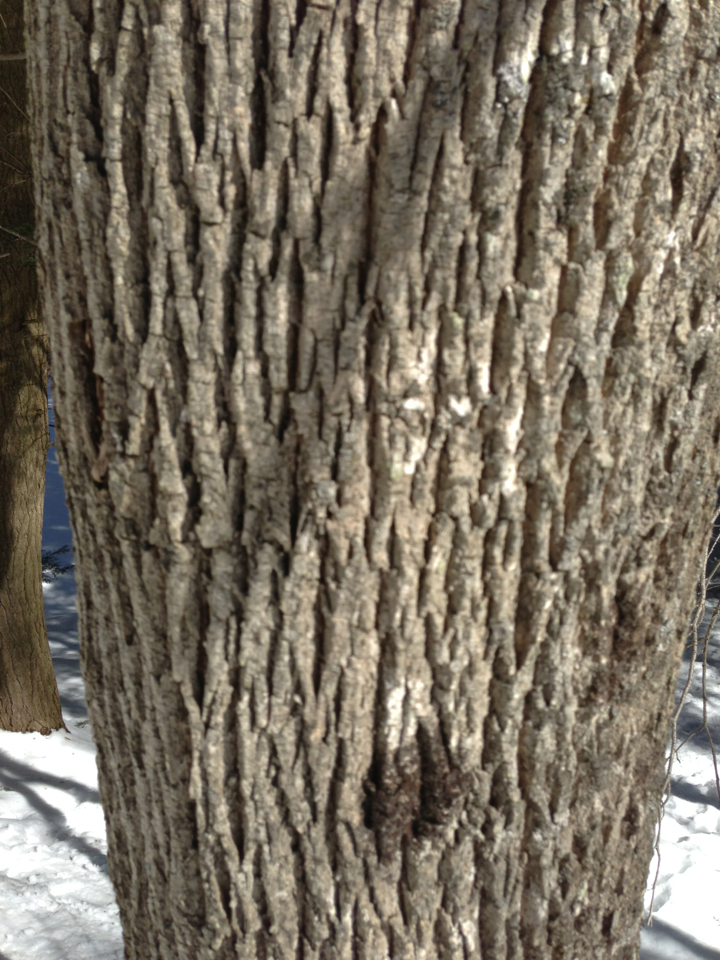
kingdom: Plantae
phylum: Tracheophyta
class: Magnoliopsida
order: Lamiales
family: Oleaceae
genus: Fraxinus
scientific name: Fraxinus americana
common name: White ash
